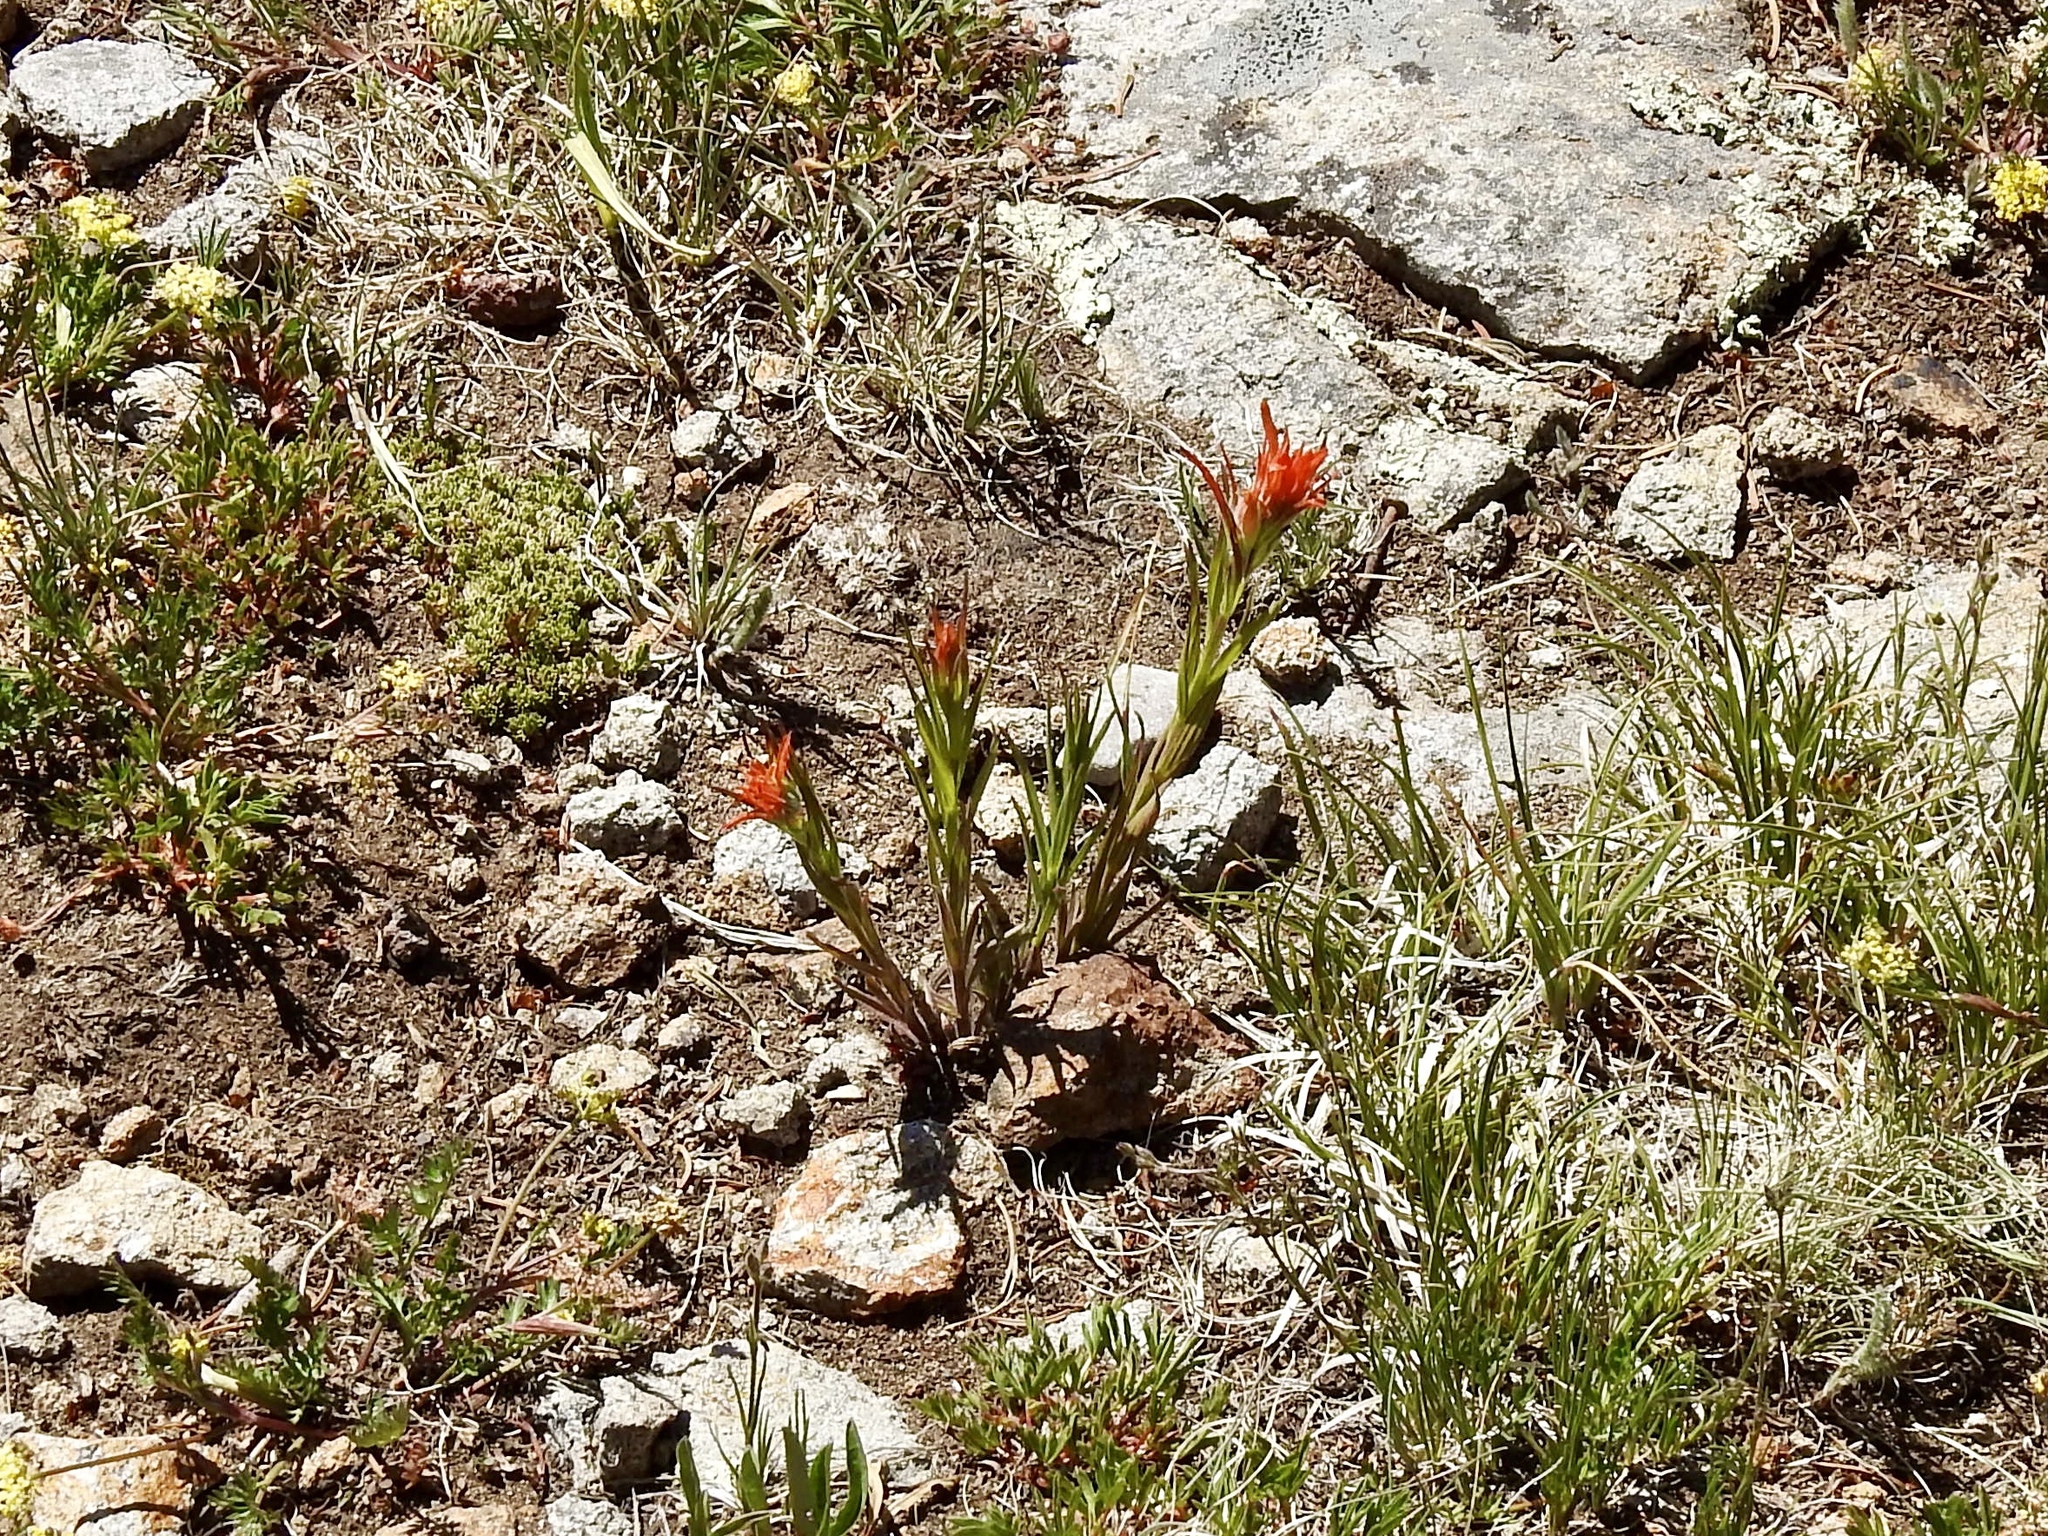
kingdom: Plantae
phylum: Tracheophyta
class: Magnoliopsida
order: Lamiales
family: Orobanchaceae
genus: Castilleja
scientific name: Castilleja wootonii
